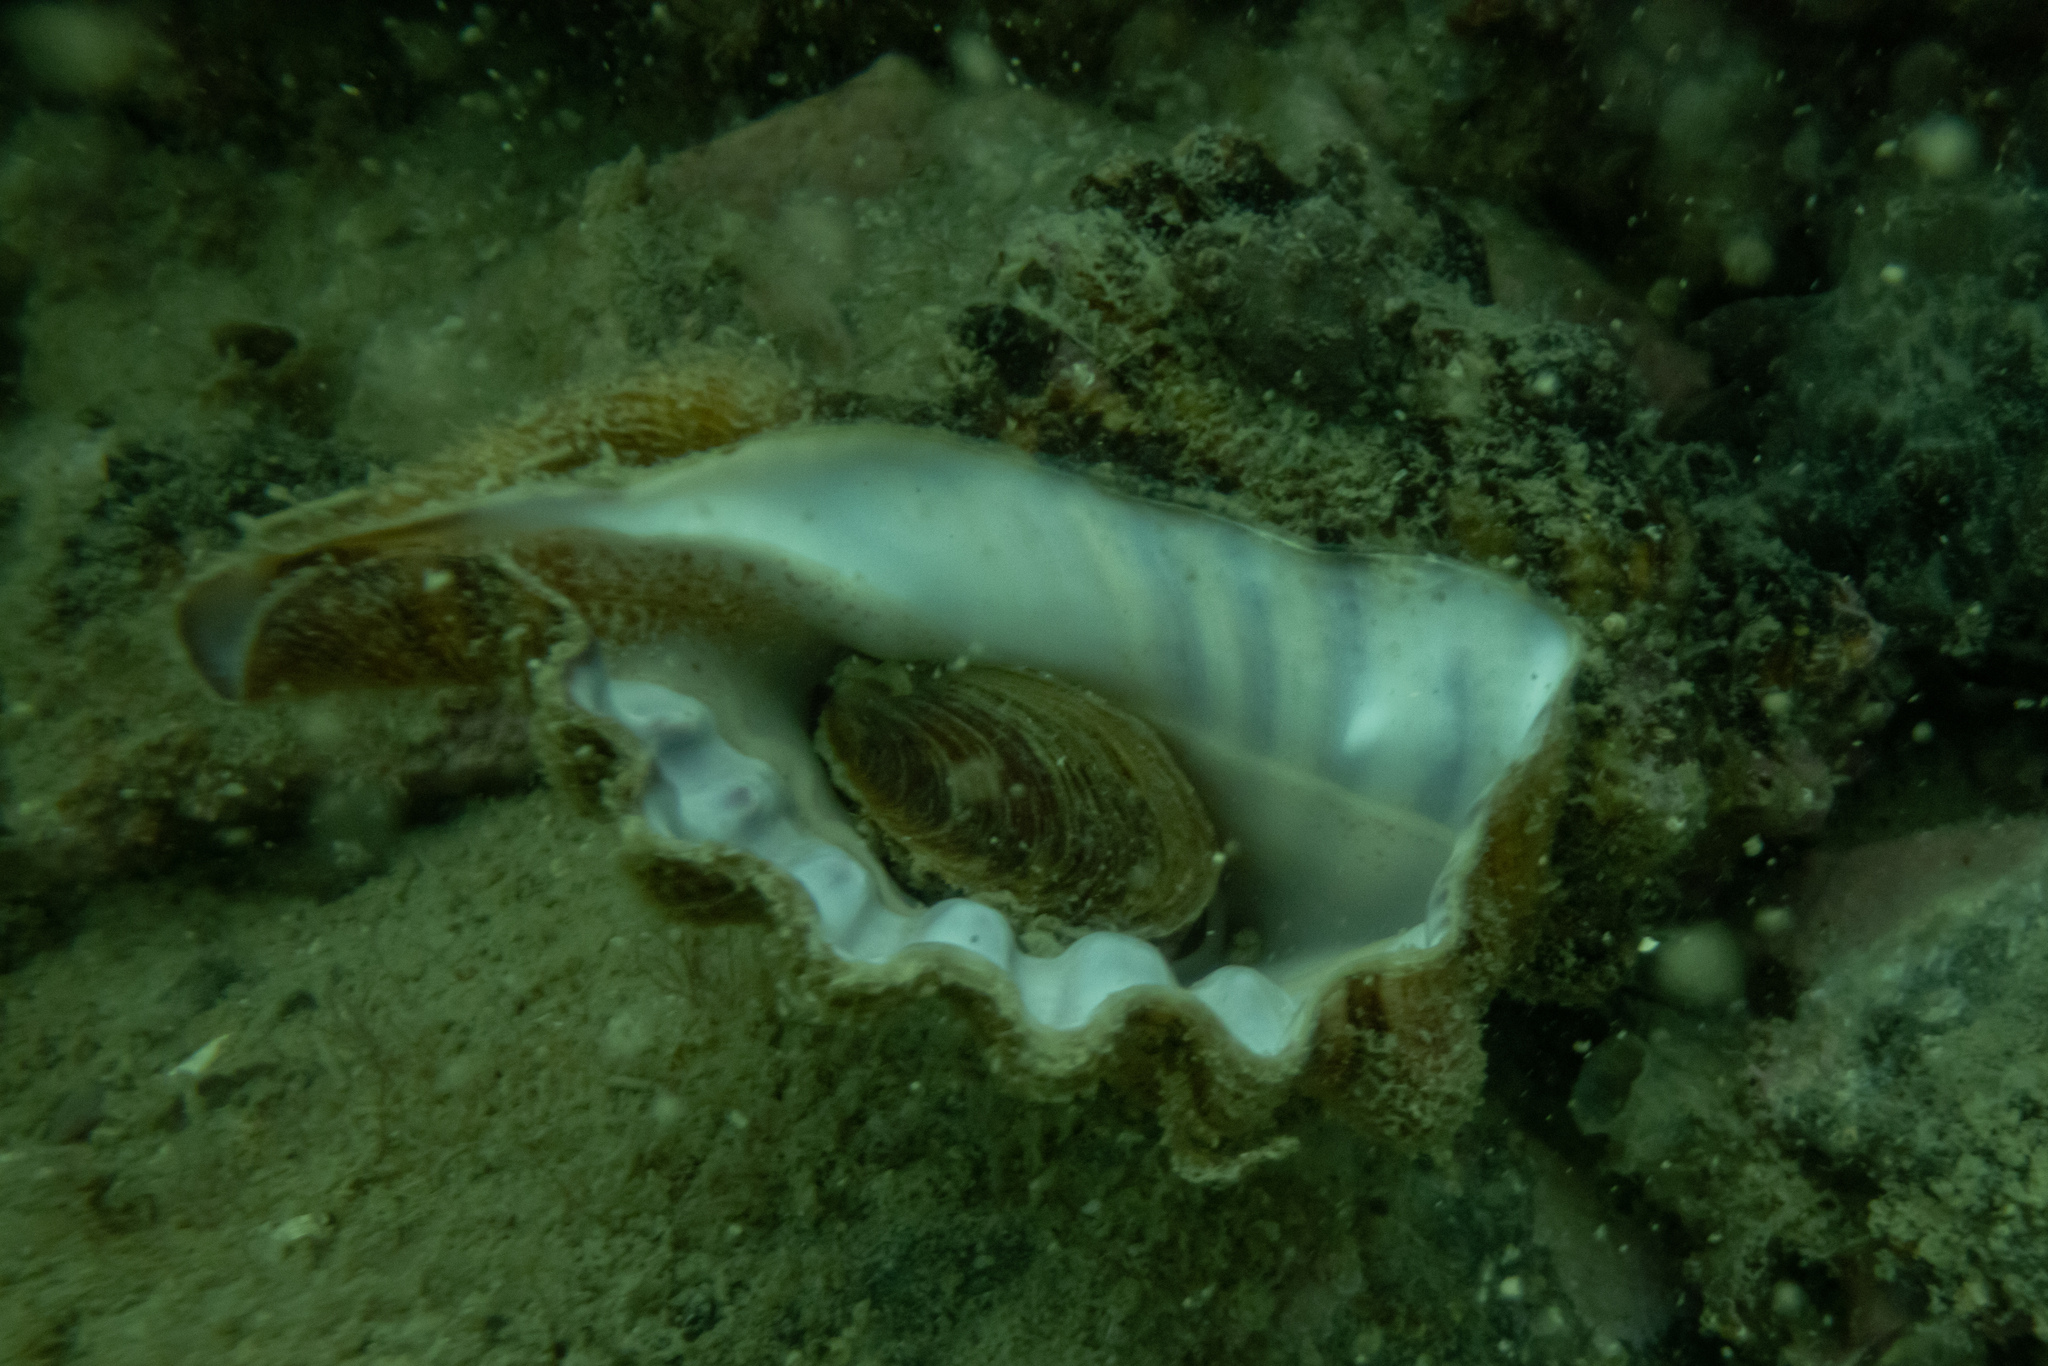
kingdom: Animalia
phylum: Mollusca
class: Gastropoda
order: Littorinimorpha
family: Cymatiidae
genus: Cabestana
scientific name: Cabestana spengleri
